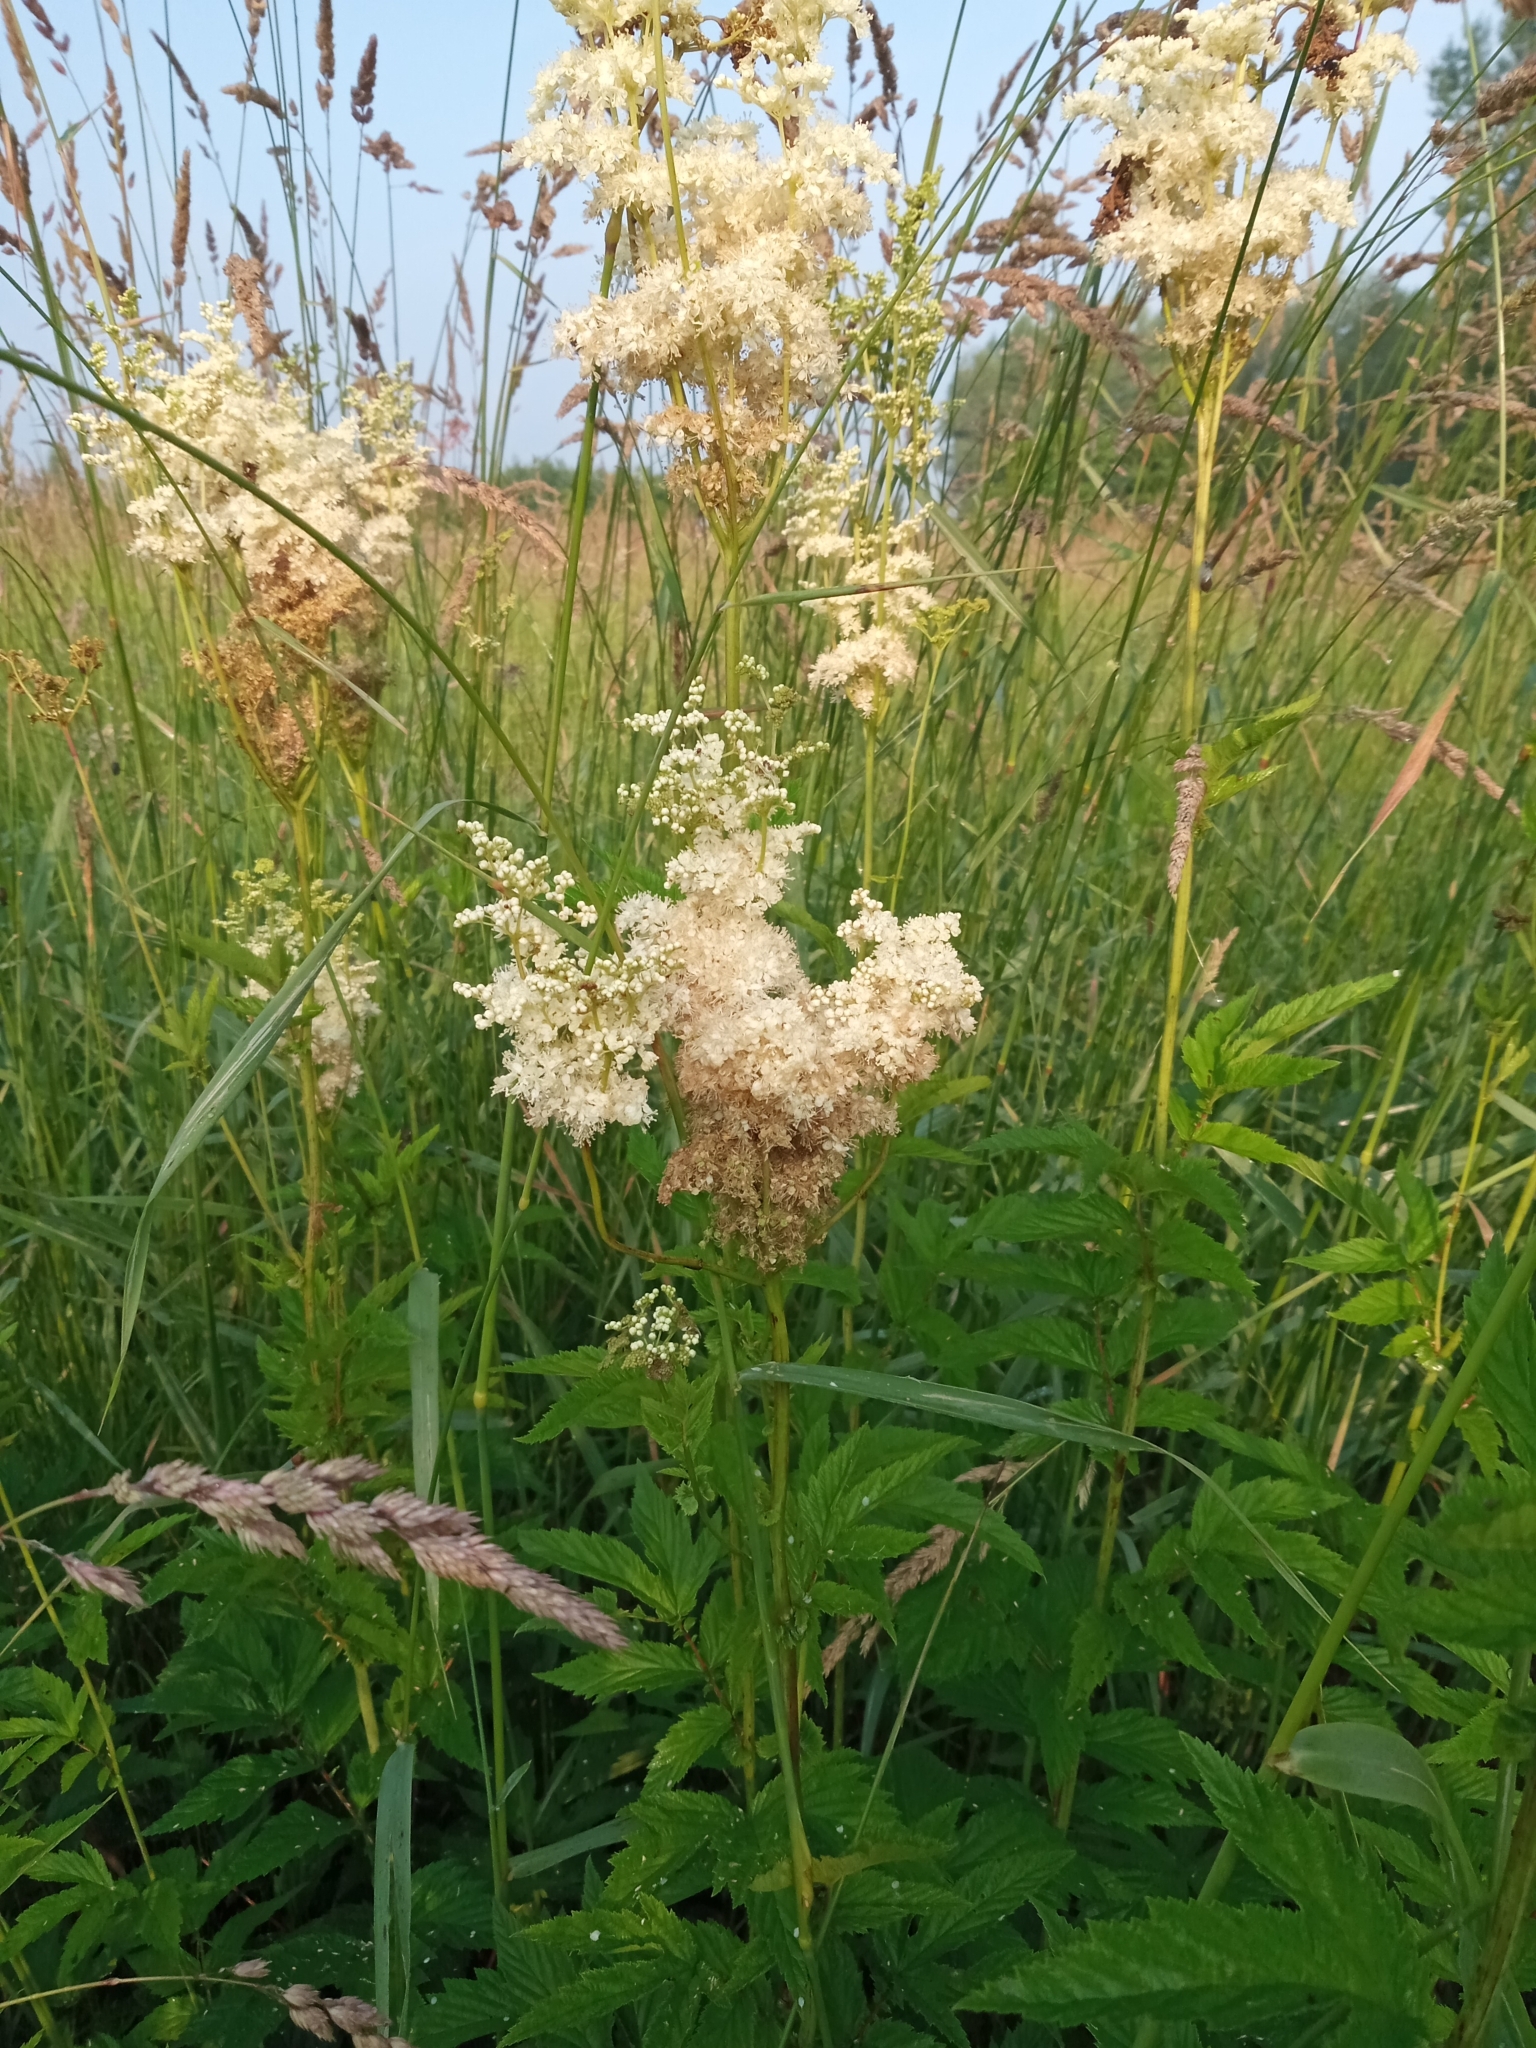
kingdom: Plantae
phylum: Tracheophyta
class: Magnoliopsida
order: Rosales
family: Rosaceae
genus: Filipendula
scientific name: Filipendula ulmaria
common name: Meadowsweet
